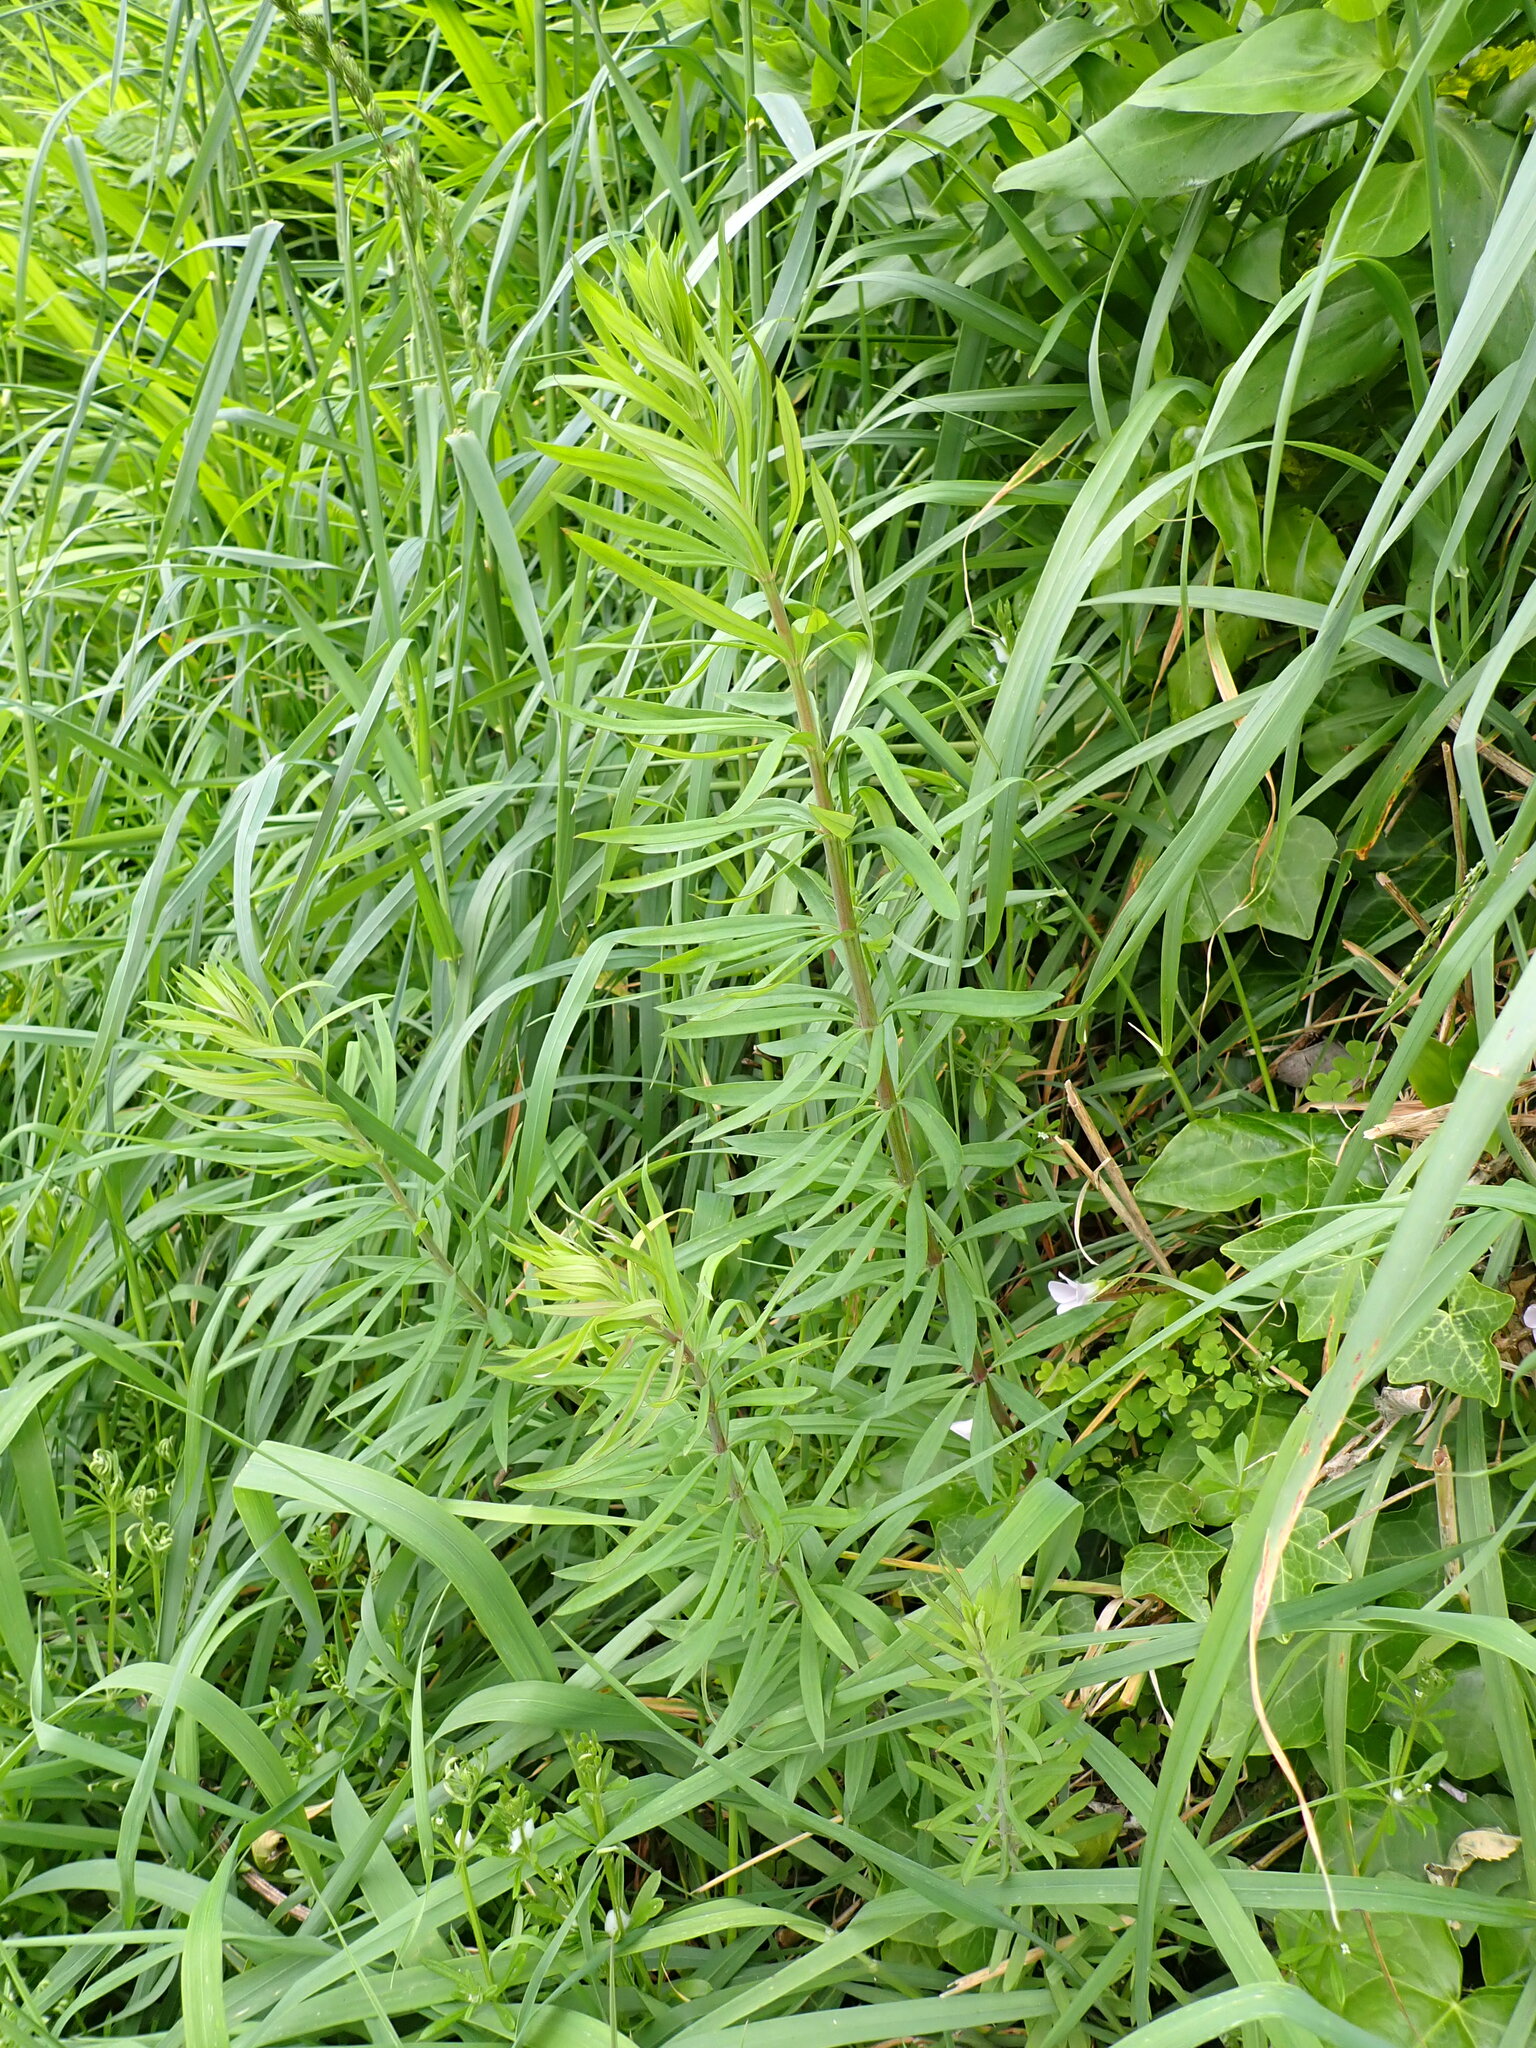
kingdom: Plantae
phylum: Tracheophyta
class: Magnoliopsida
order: Lamiales
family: Plantaginaceae
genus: Linaria
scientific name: Linaria purpurea
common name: Purple toadflax
